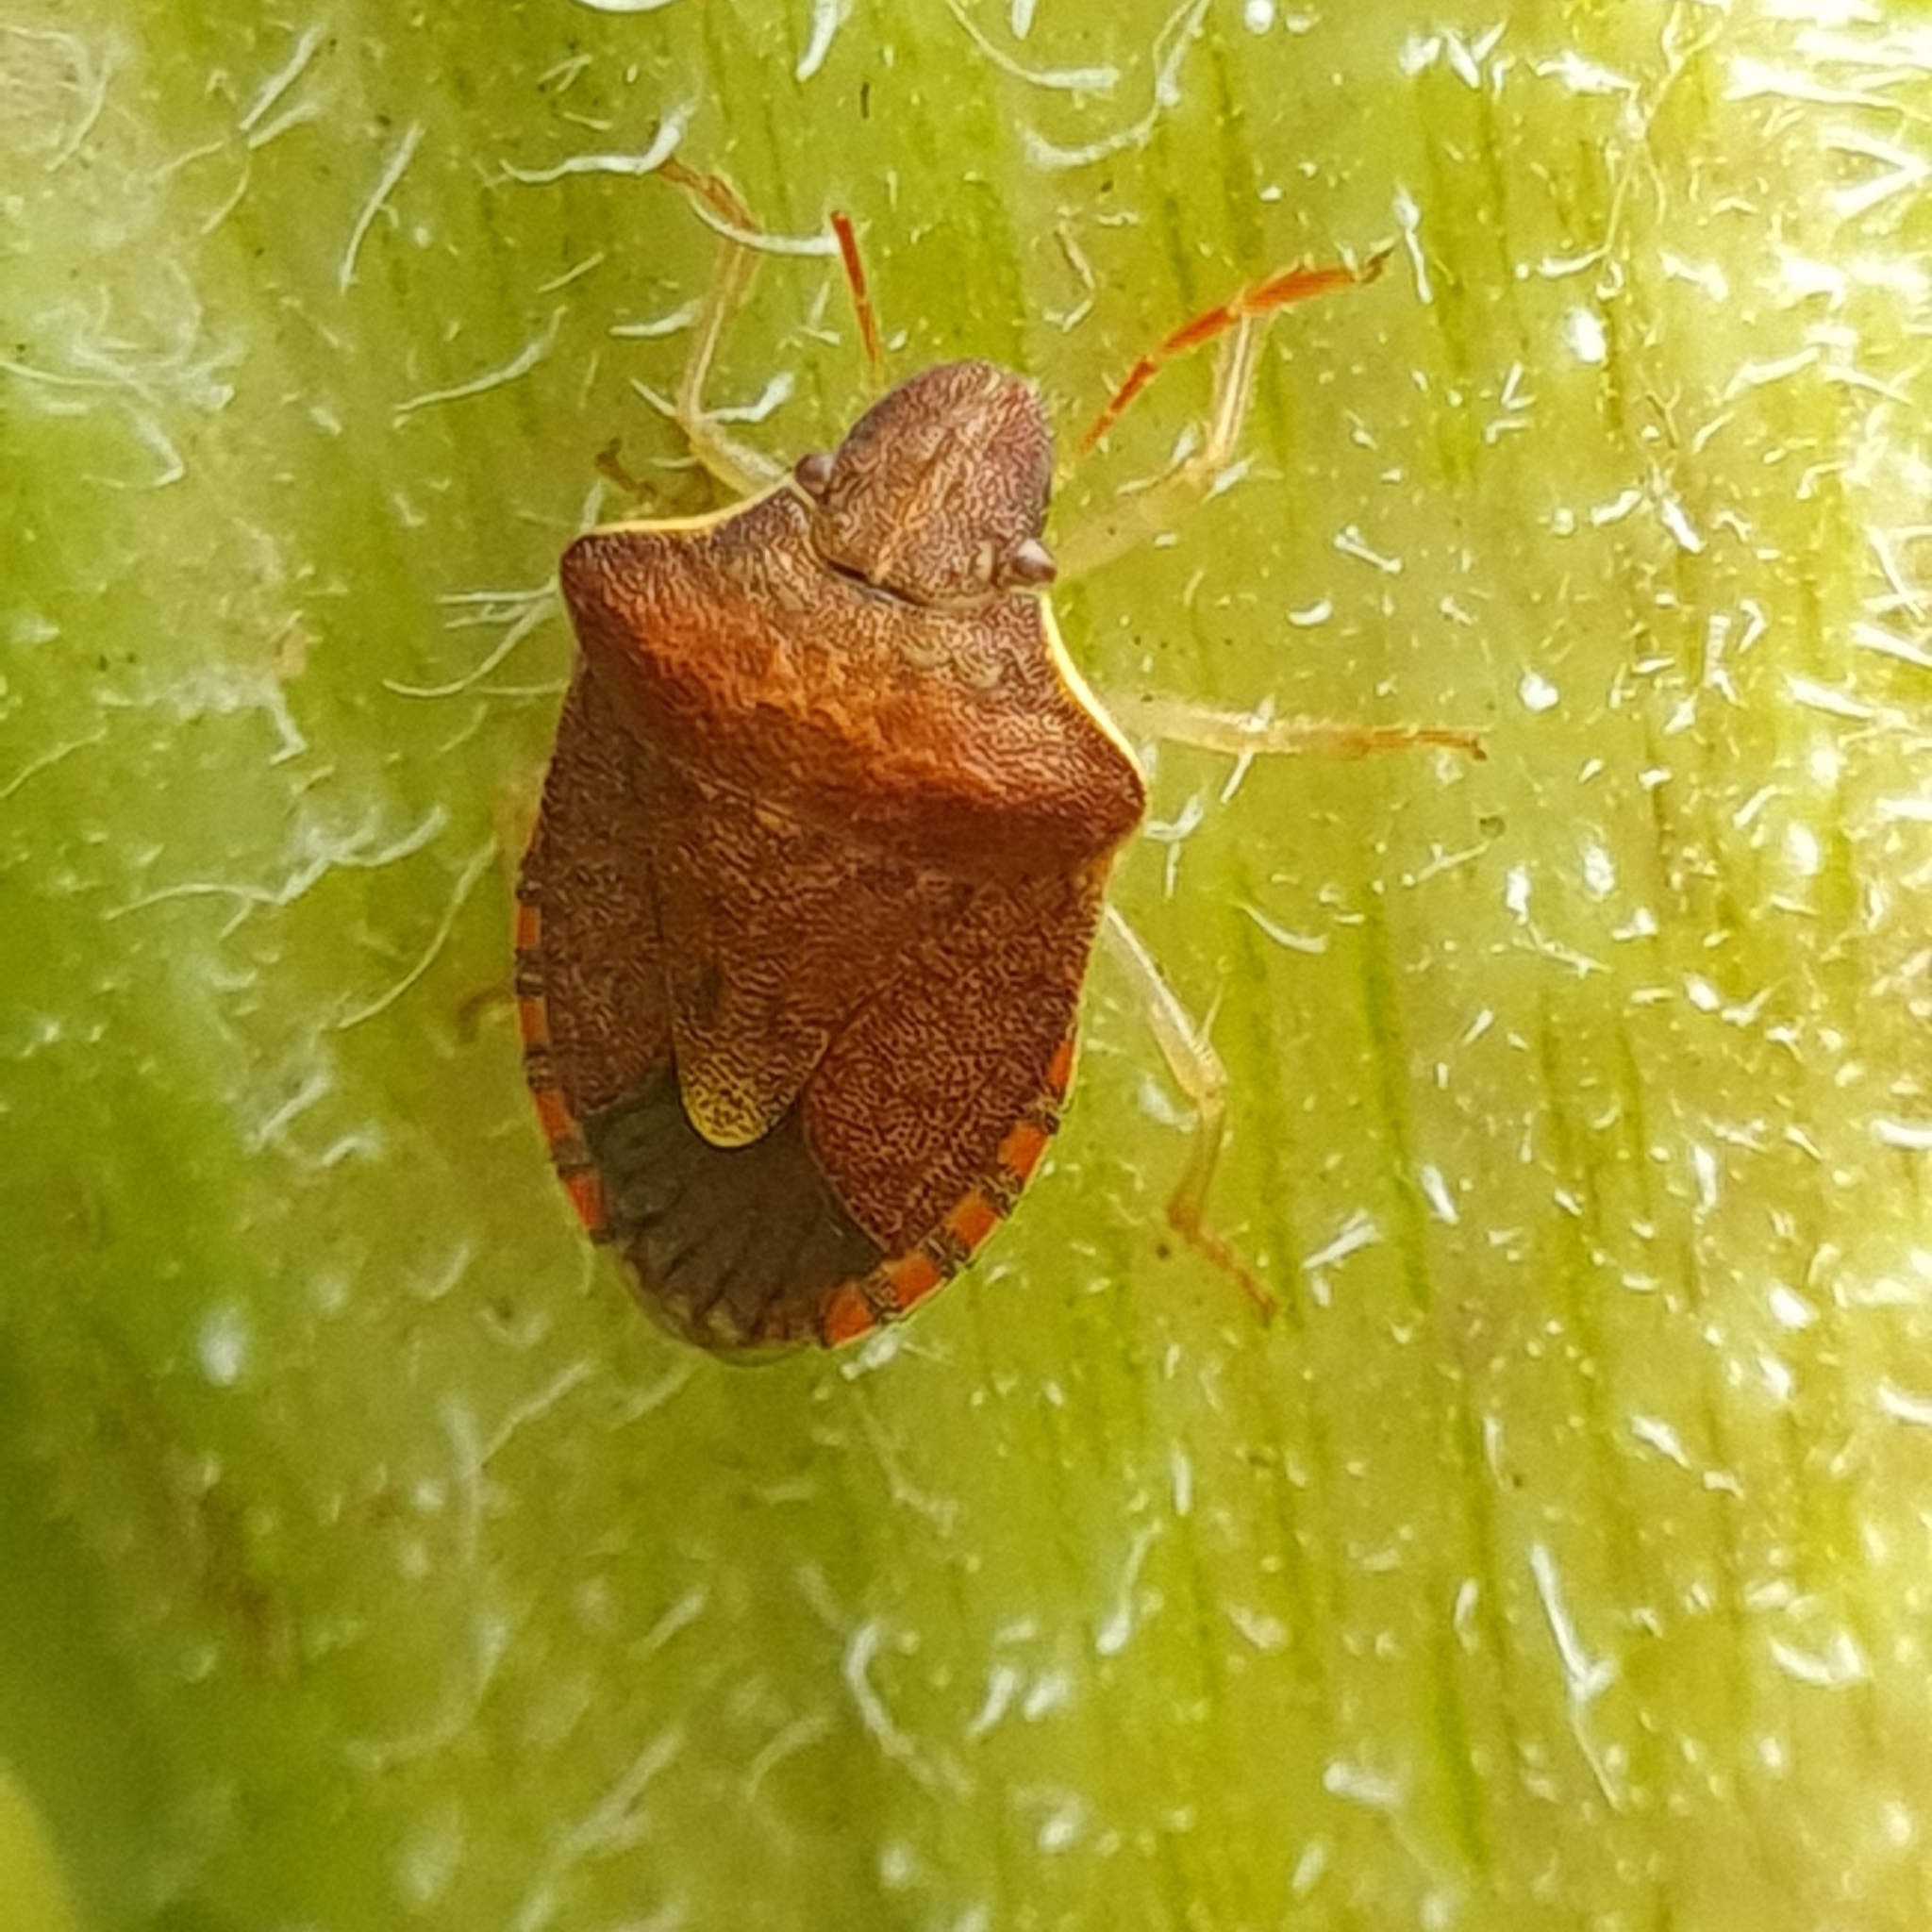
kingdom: Animalia
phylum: Arthropoda
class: Insecta
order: Hemiptera
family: Pentatomidae
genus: Holcostethus
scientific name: Holcostethus strictus
